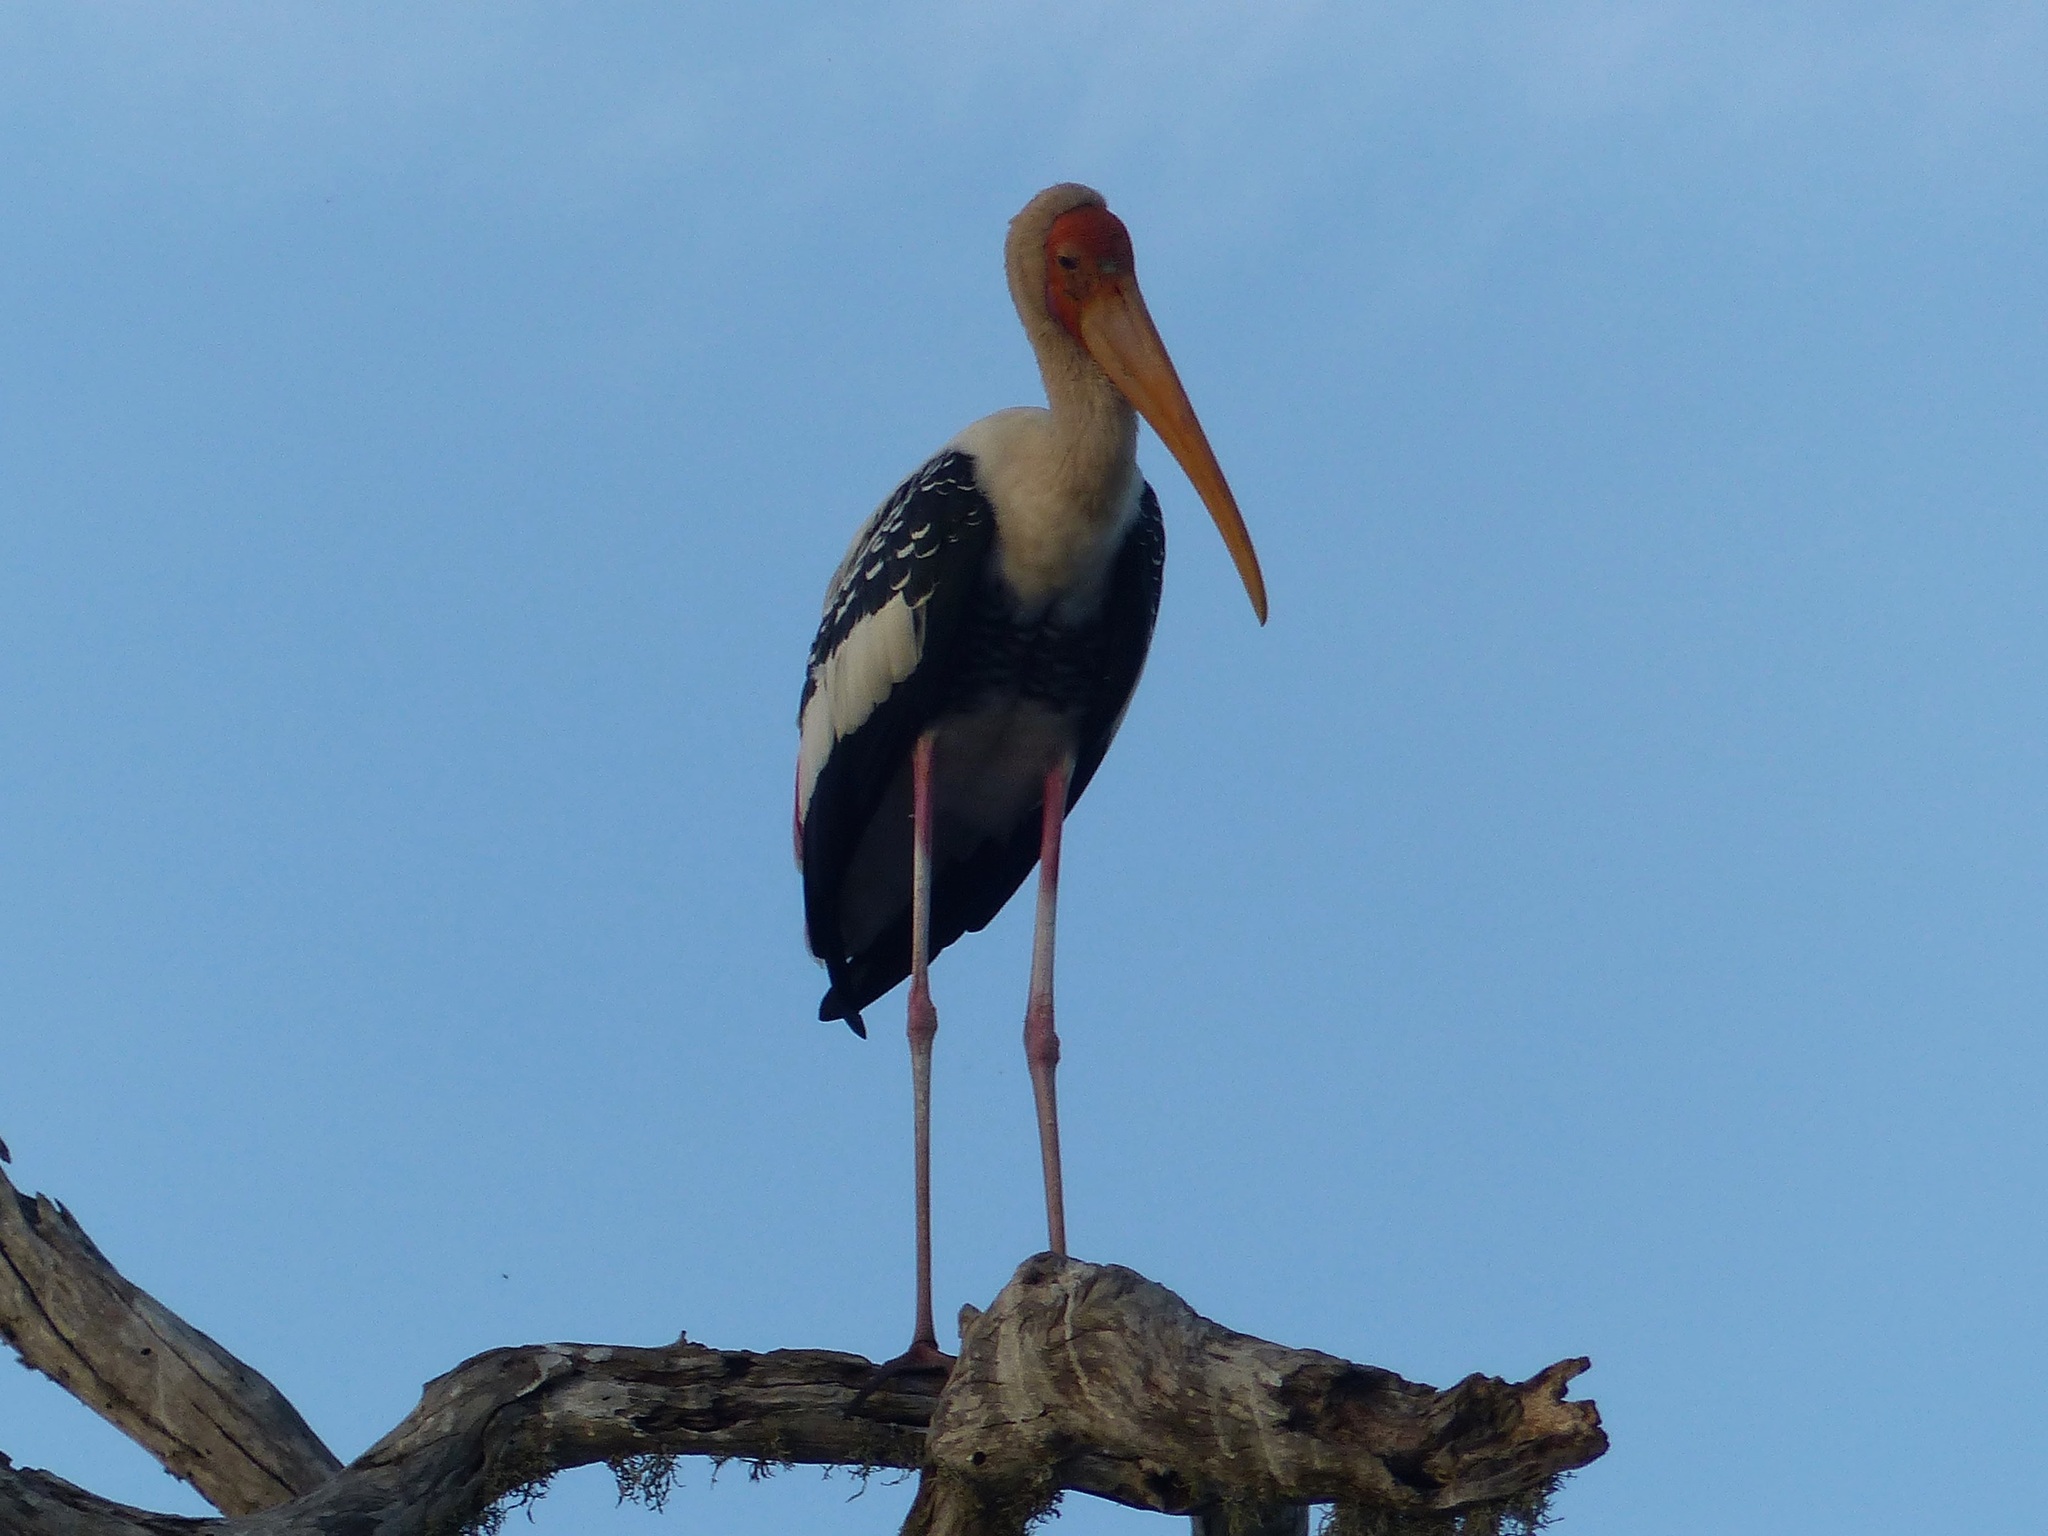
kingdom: Animalia
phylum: Chordata
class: Aves
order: Ciconiiformes
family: Ciconiidae
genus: Mycteria
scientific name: Mycteria leucocephala
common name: Painted stork
